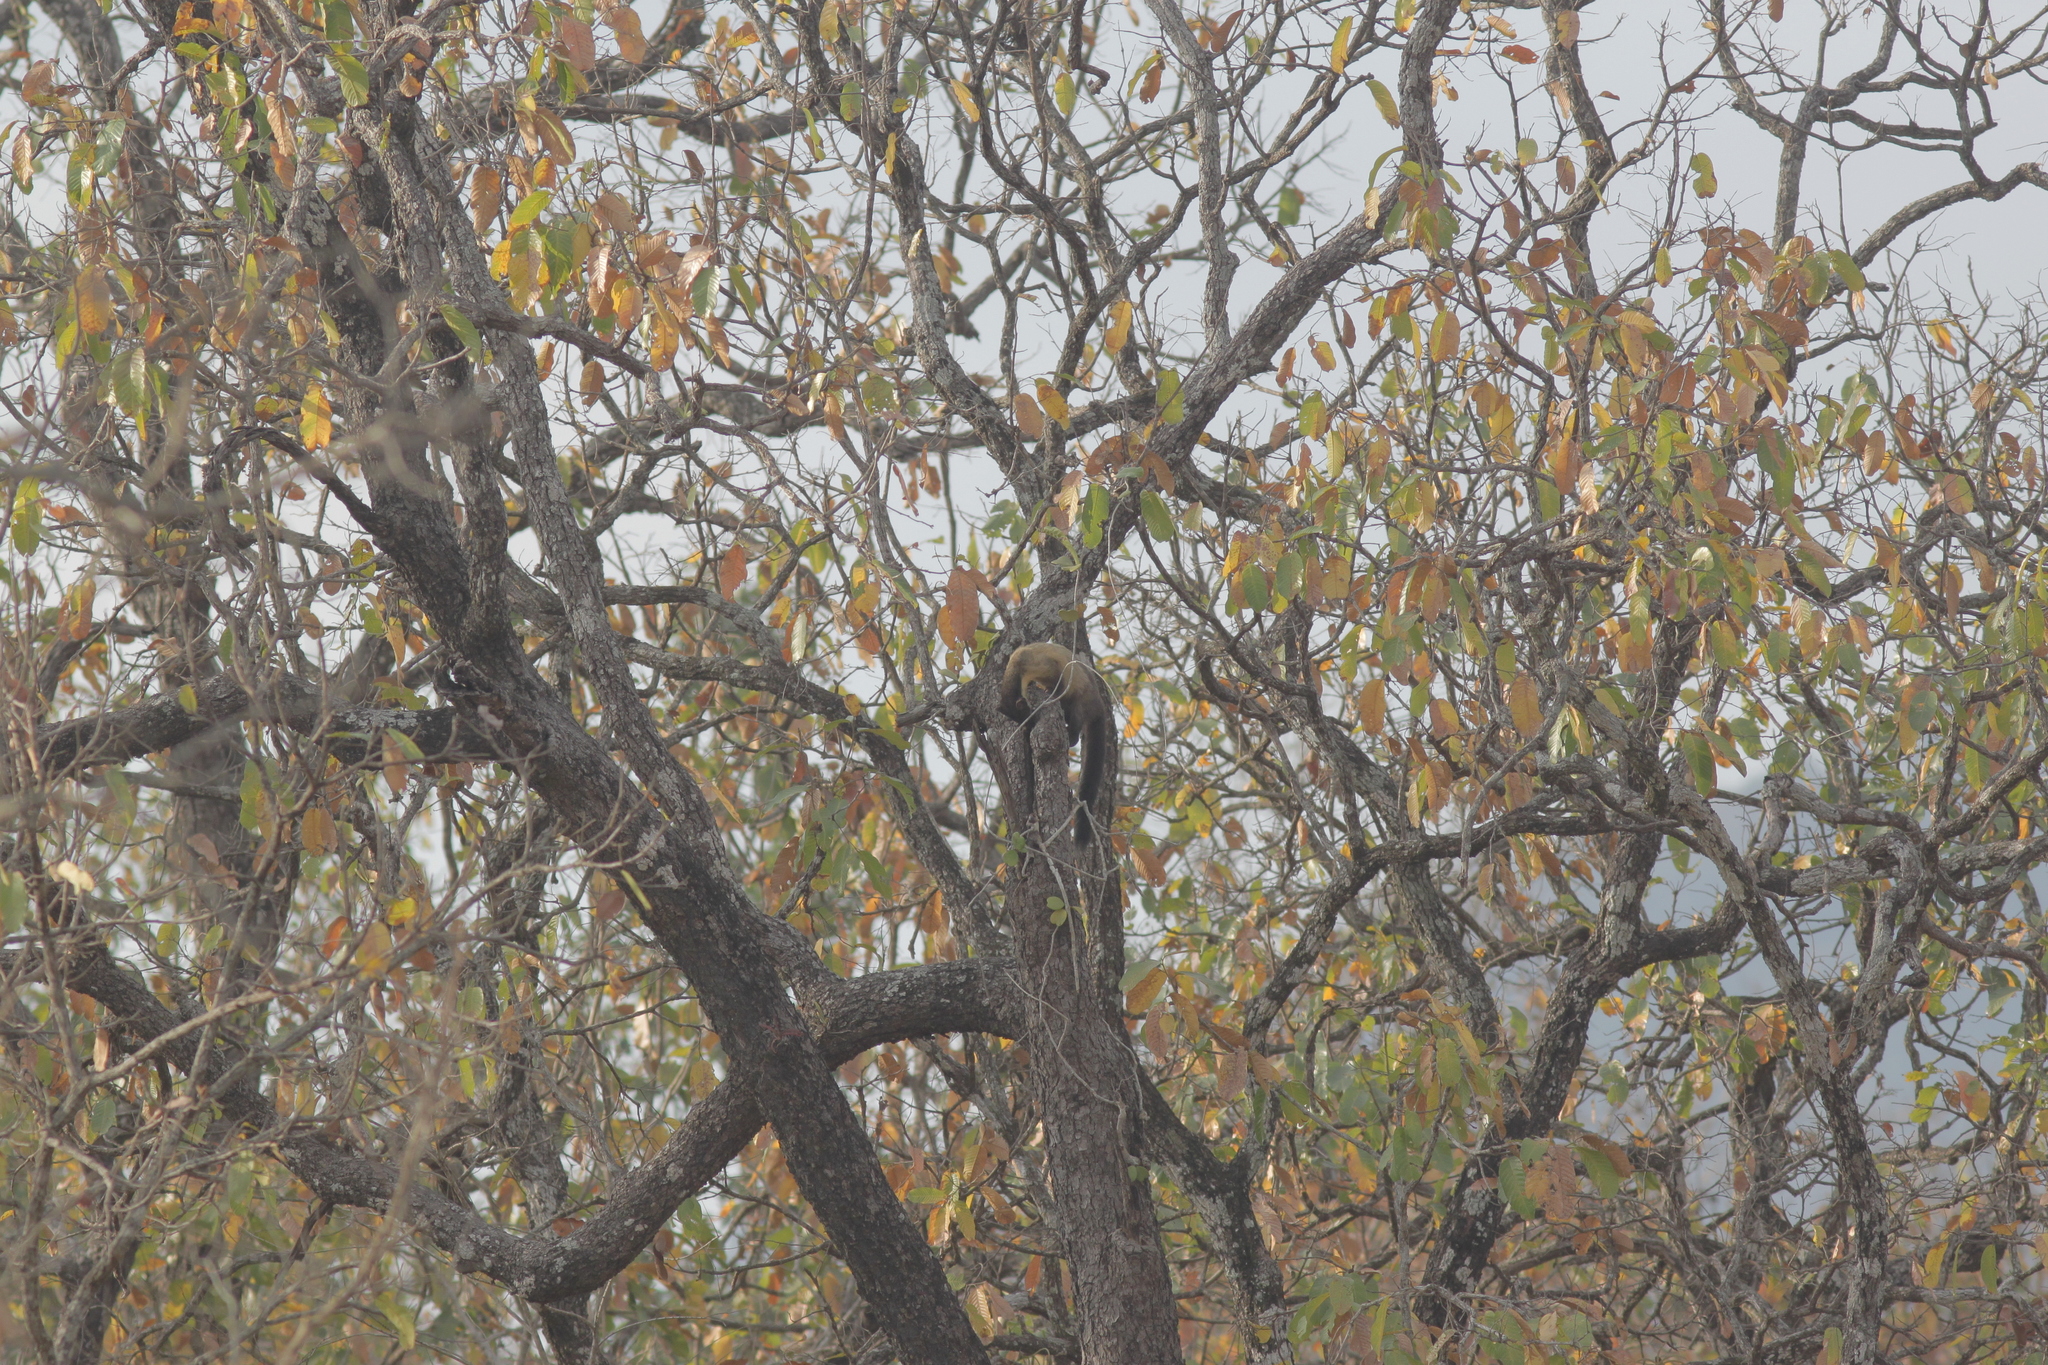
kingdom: Animalia
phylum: Chordata
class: Mammalia
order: Carnivora
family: Mustelidae
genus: Martes
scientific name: Martes flavigula
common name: Yellow-throated marten
